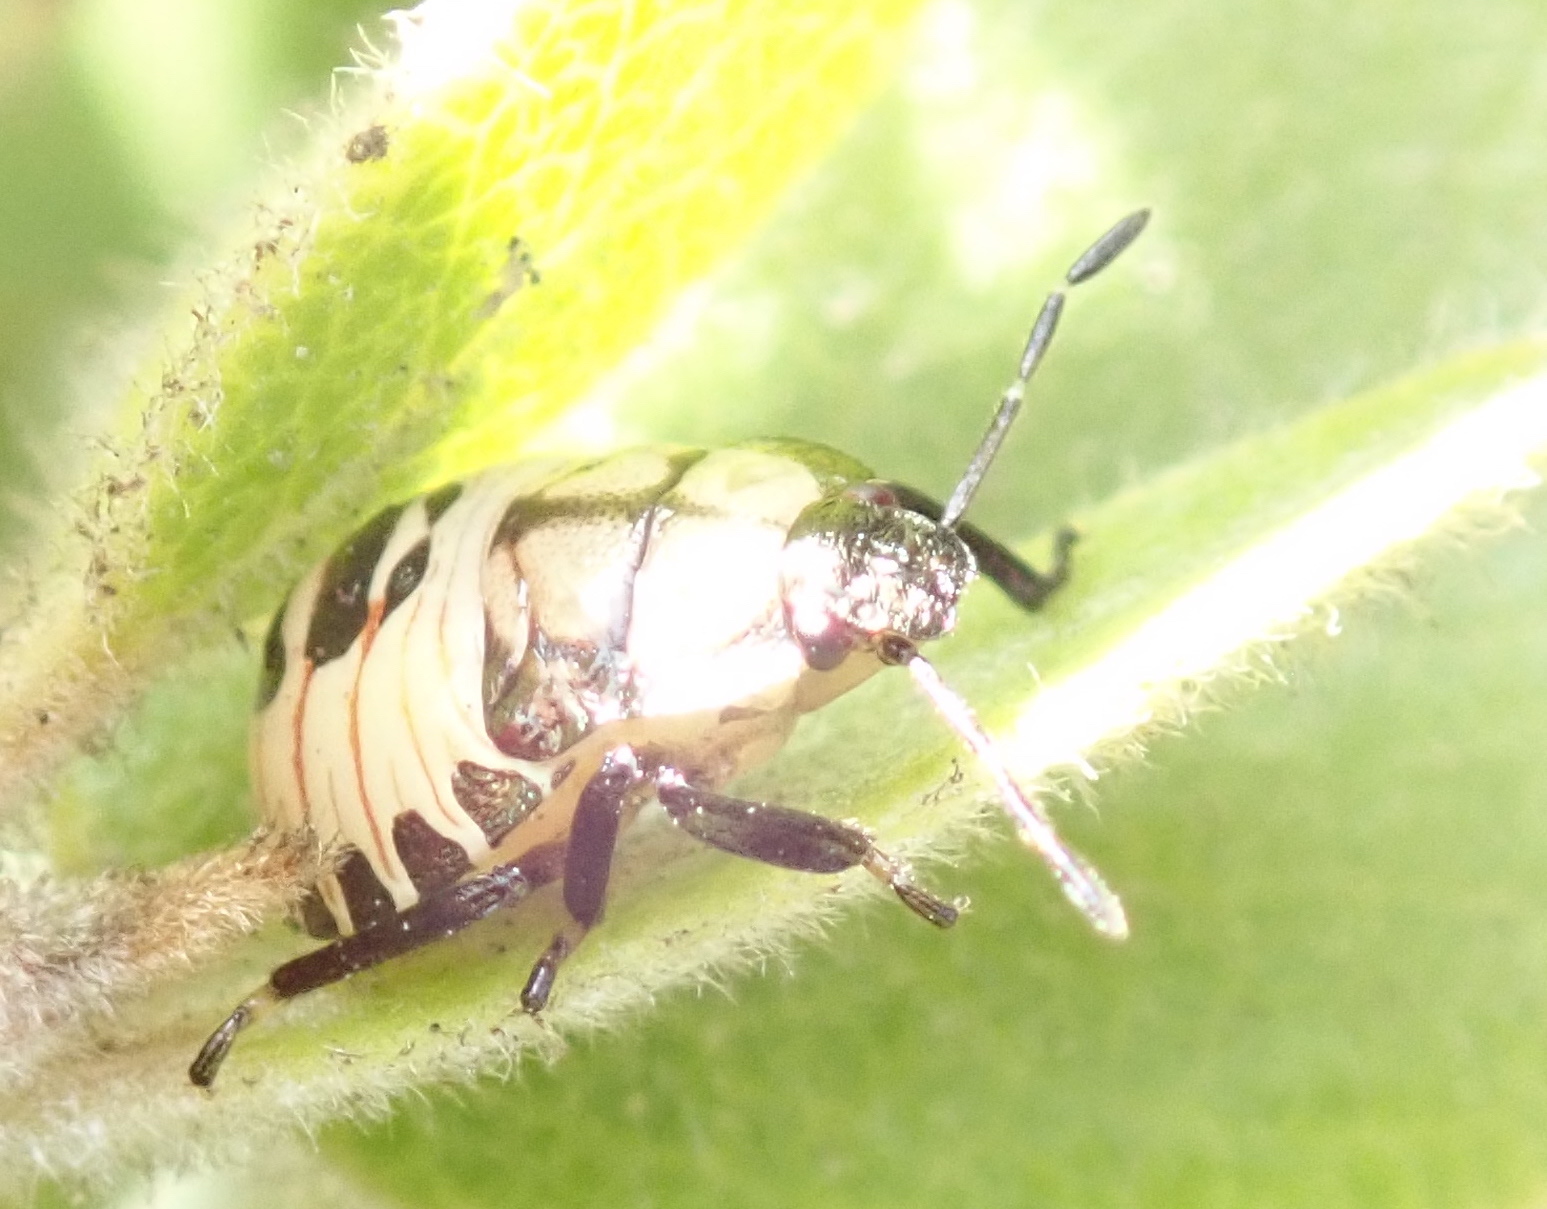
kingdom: Animalia
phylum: Arthropoda
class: Insecta
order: Hemiptera
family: Pentatomidae
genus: Podisus
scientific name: Podisus maculiventris
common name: Spined soldier bug
